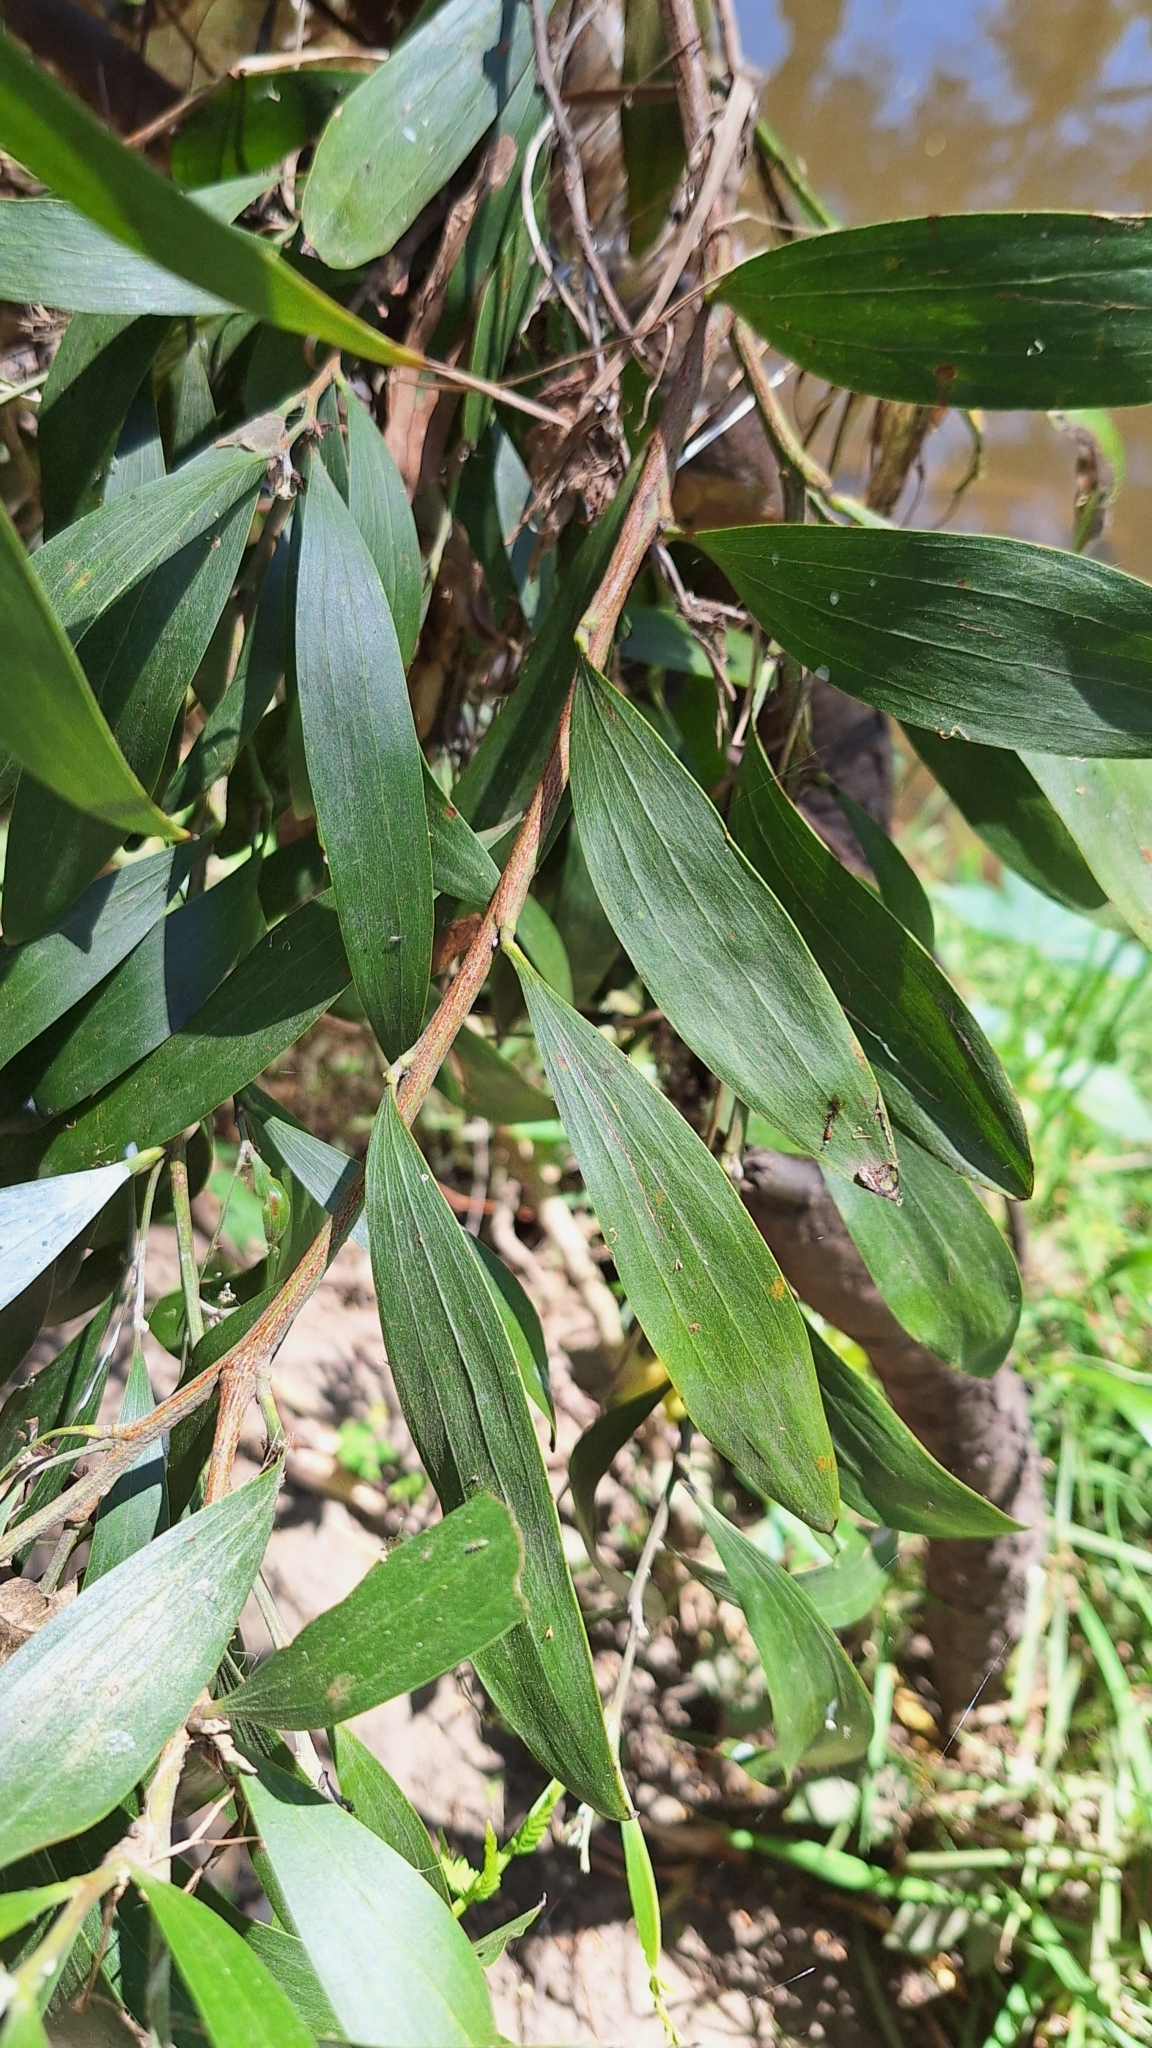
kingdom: Plantae
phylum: Tracheophyta
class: Magnoliopsida
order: Fabales
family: Fabaceae
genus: Acacia
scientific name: Acacia melanoxylon
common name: Blackwood
